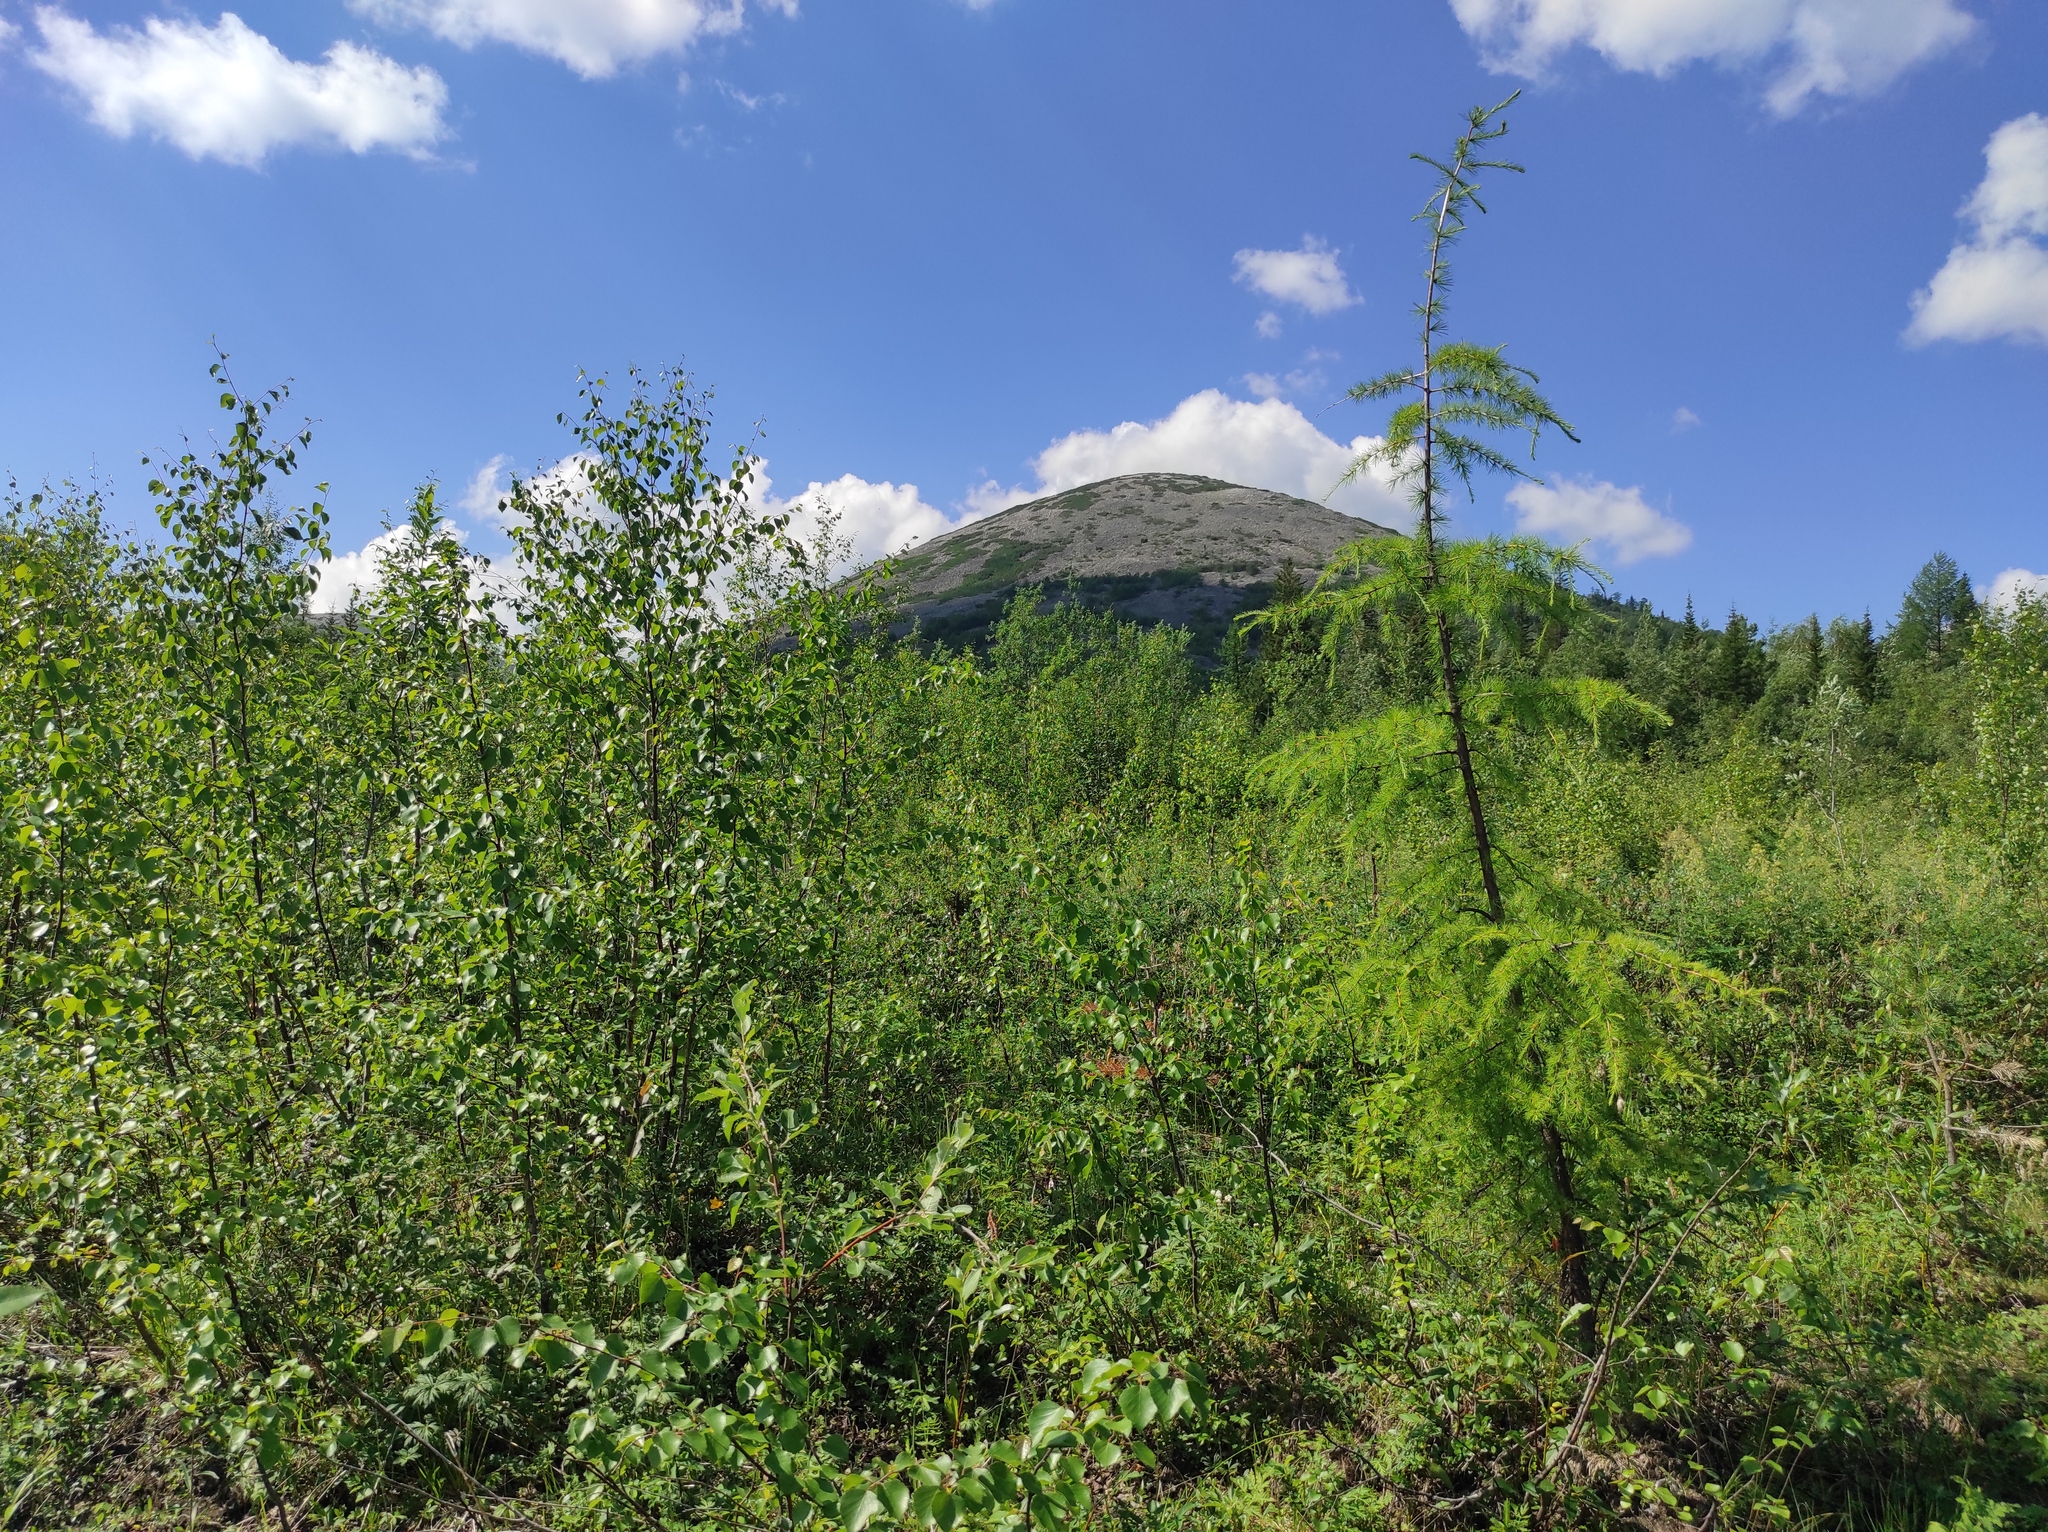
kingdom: Plantae
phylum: Tracheophyta
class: Pinopsida
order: Pinales
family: Pinaceae
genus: Larix
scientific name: Larix gmelinii
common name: Dahurian larch
